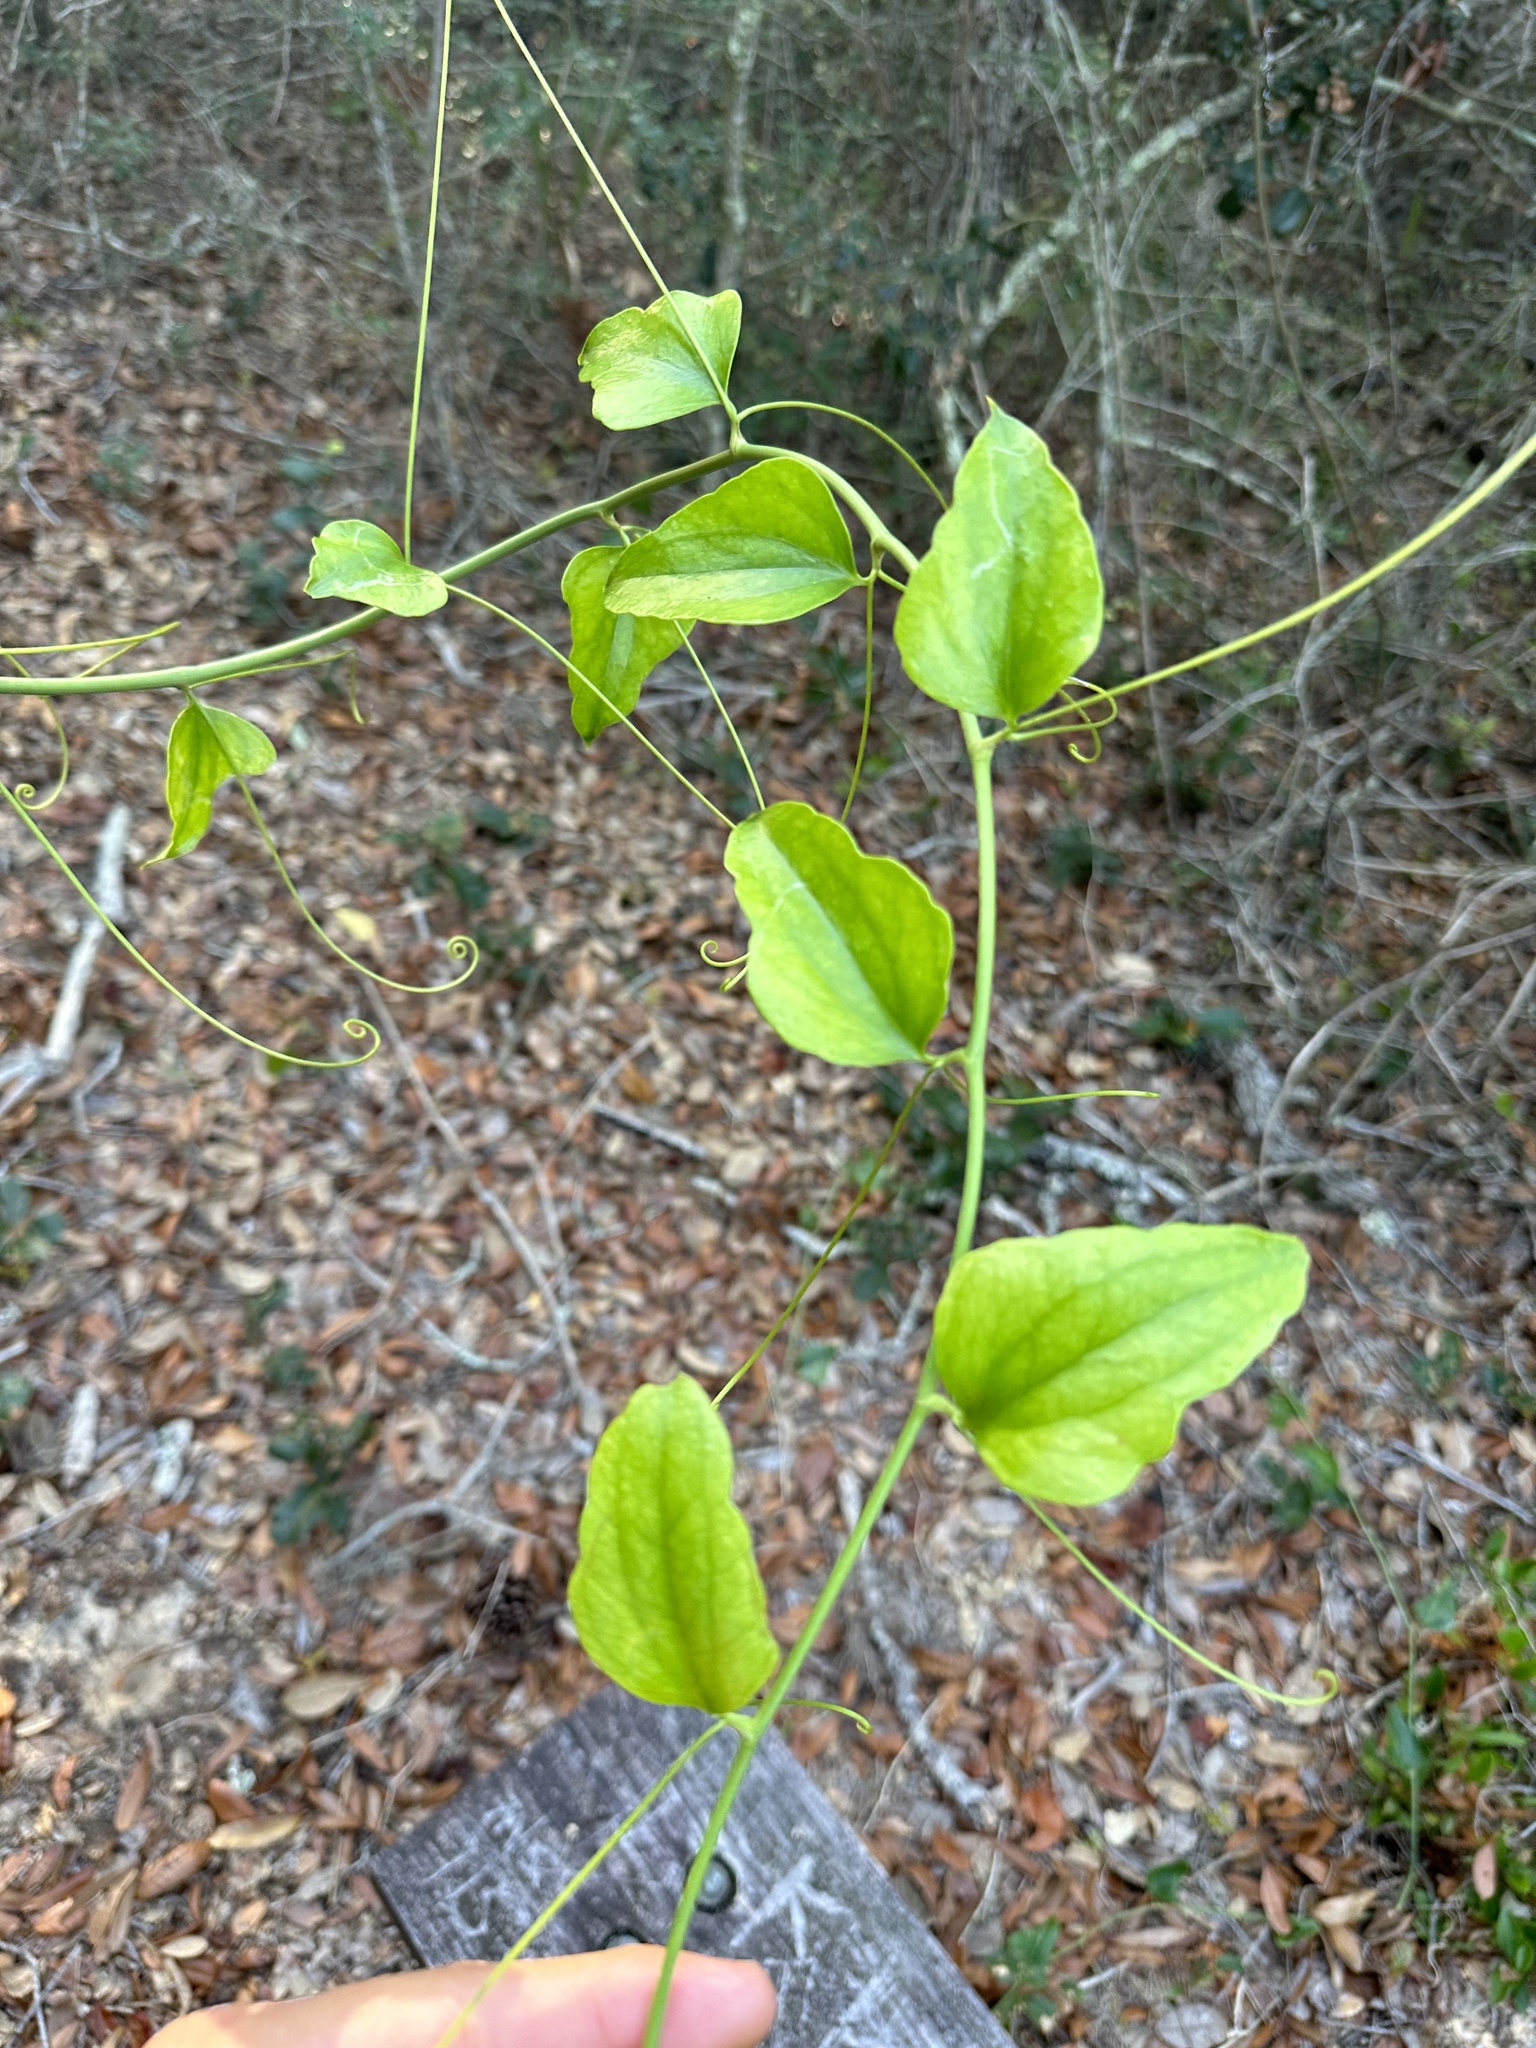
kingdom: Plantae
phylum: Tracheophyta
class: Liliopsida
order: Liliales
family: Smilacaceae
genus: Smilax
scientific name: Smilax tamnoides
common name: Hellfetter
